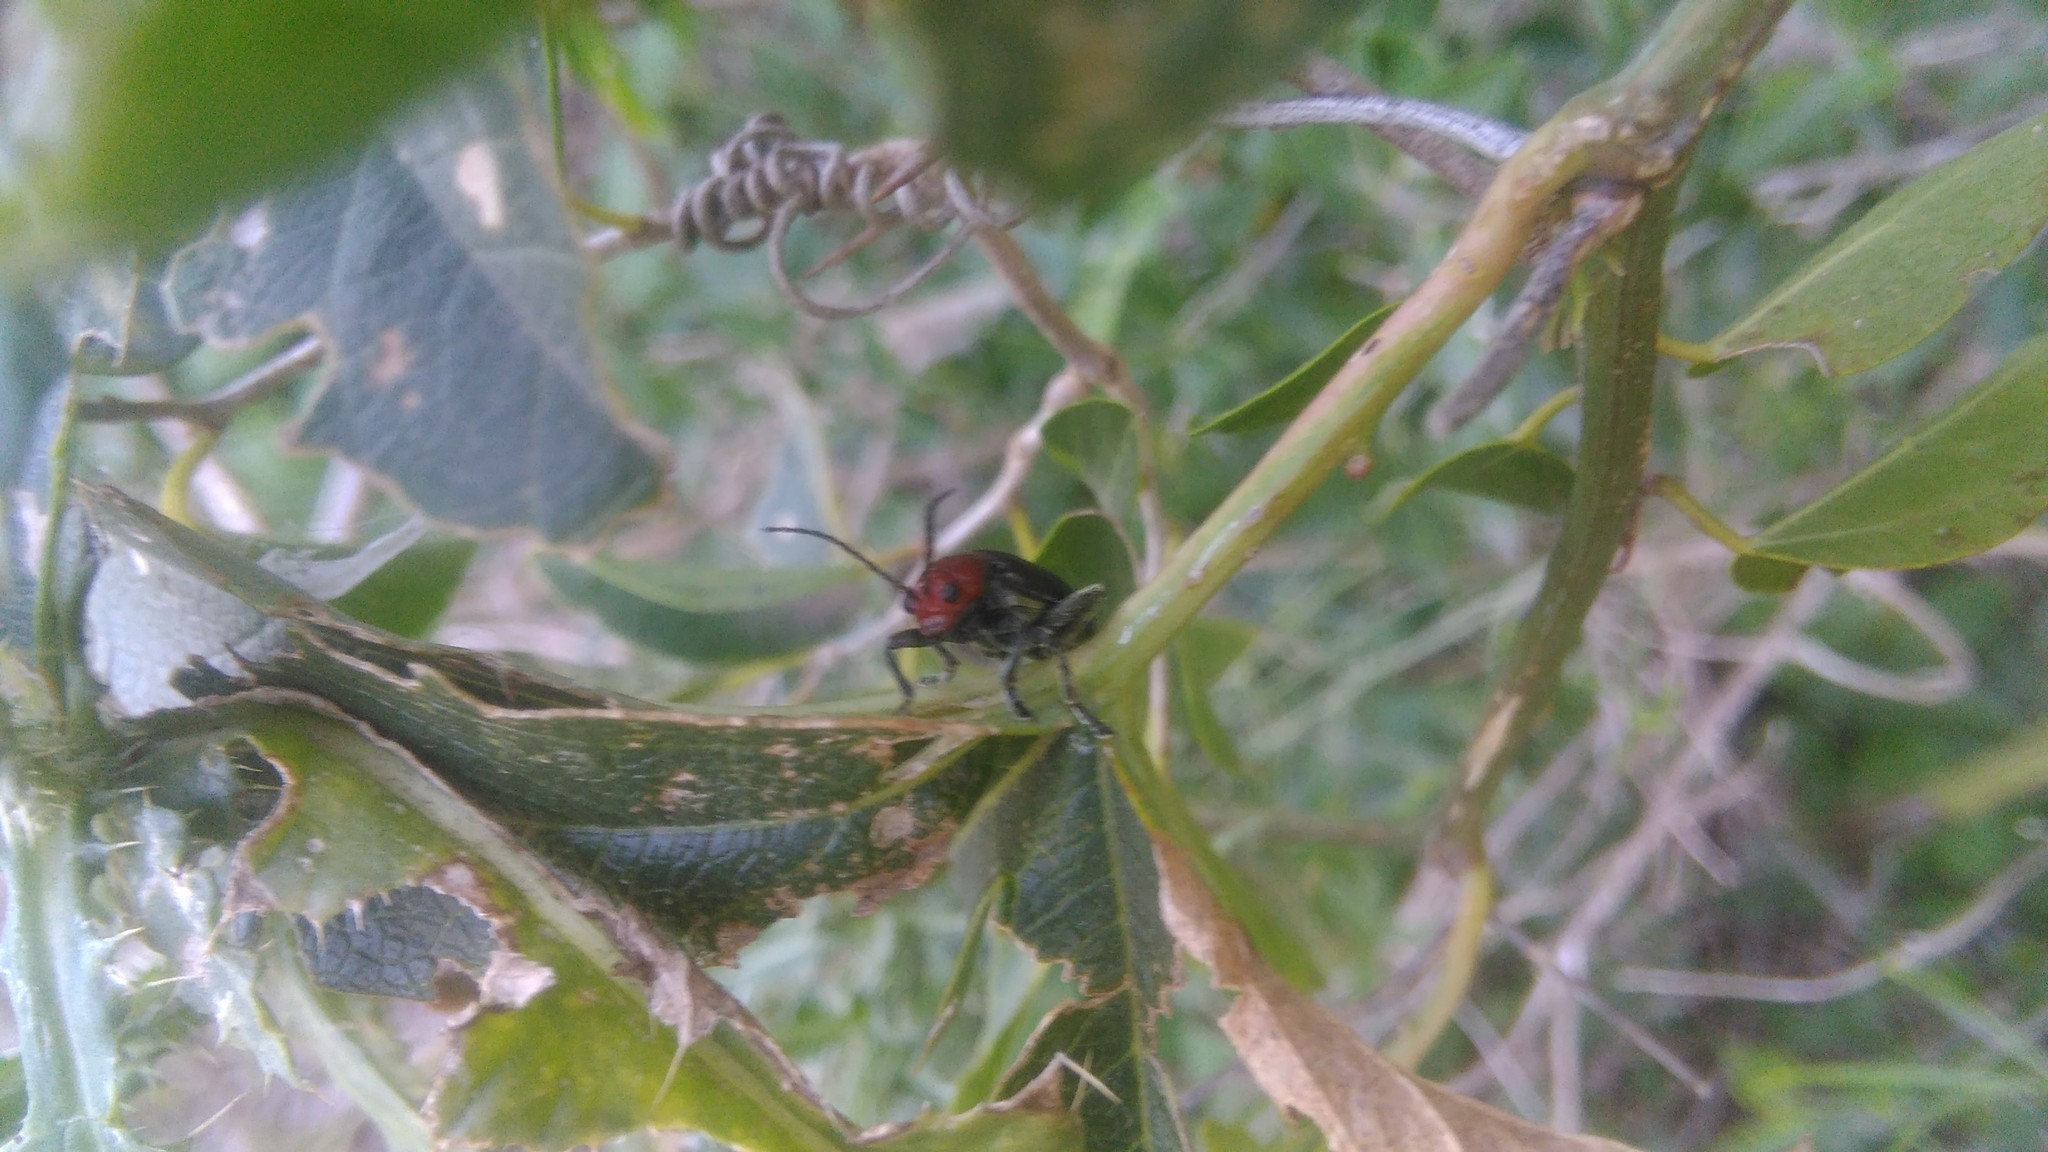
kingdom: Animalia
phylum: Arthropoda
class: Insecta
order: Coleoptera
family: Chrysomelidae
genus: Cacoscelis
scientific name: Cacoscelis
